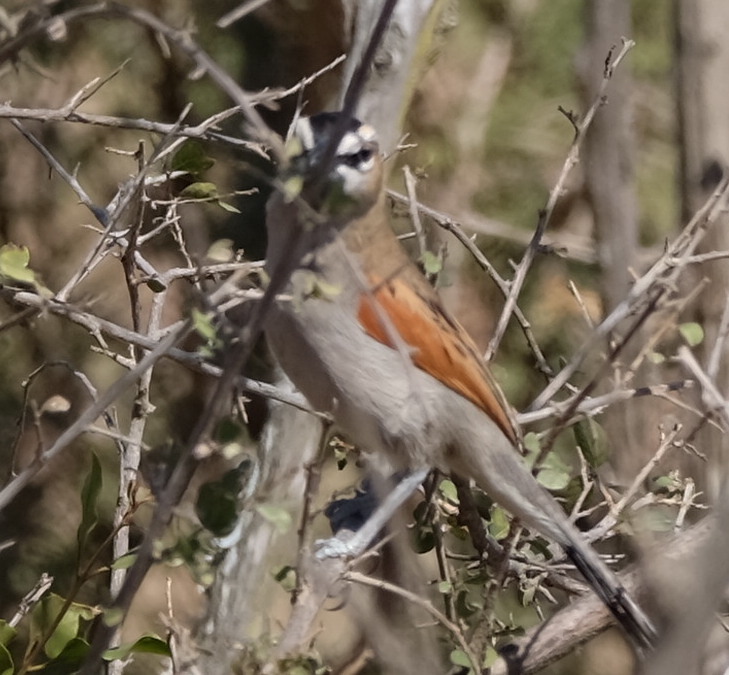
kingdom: Animalia
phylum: Chordata
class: Aves
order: Passeriformes
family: Malaconotidae
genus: Tchagra
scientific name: Tchagra senegalus
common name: Black-crowned tchagra
